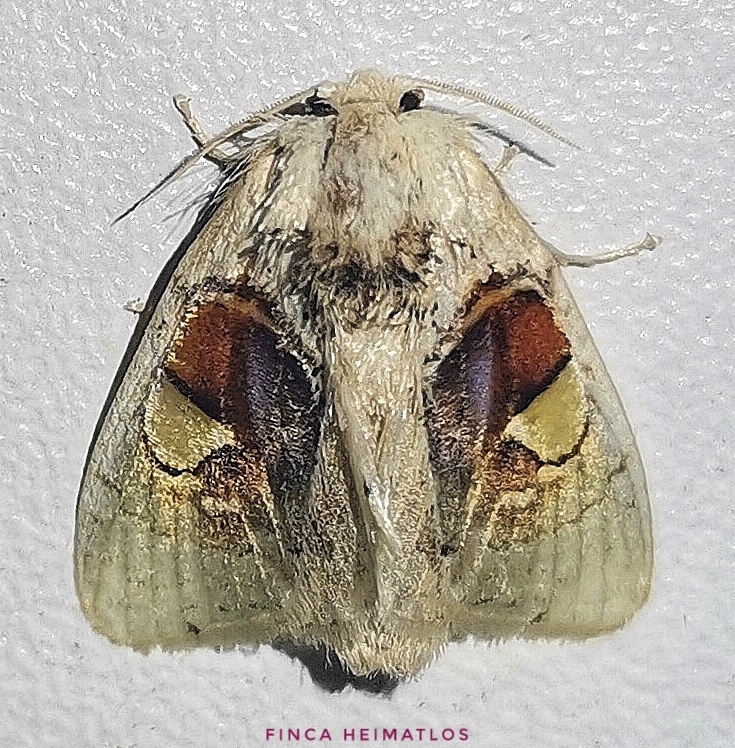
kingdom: Animalia
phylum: Arthropoda
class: Insecta
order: Lepidoptera
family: Psychidae
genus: Arrhenophanes
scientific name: Arrhenophanes perspicilla
